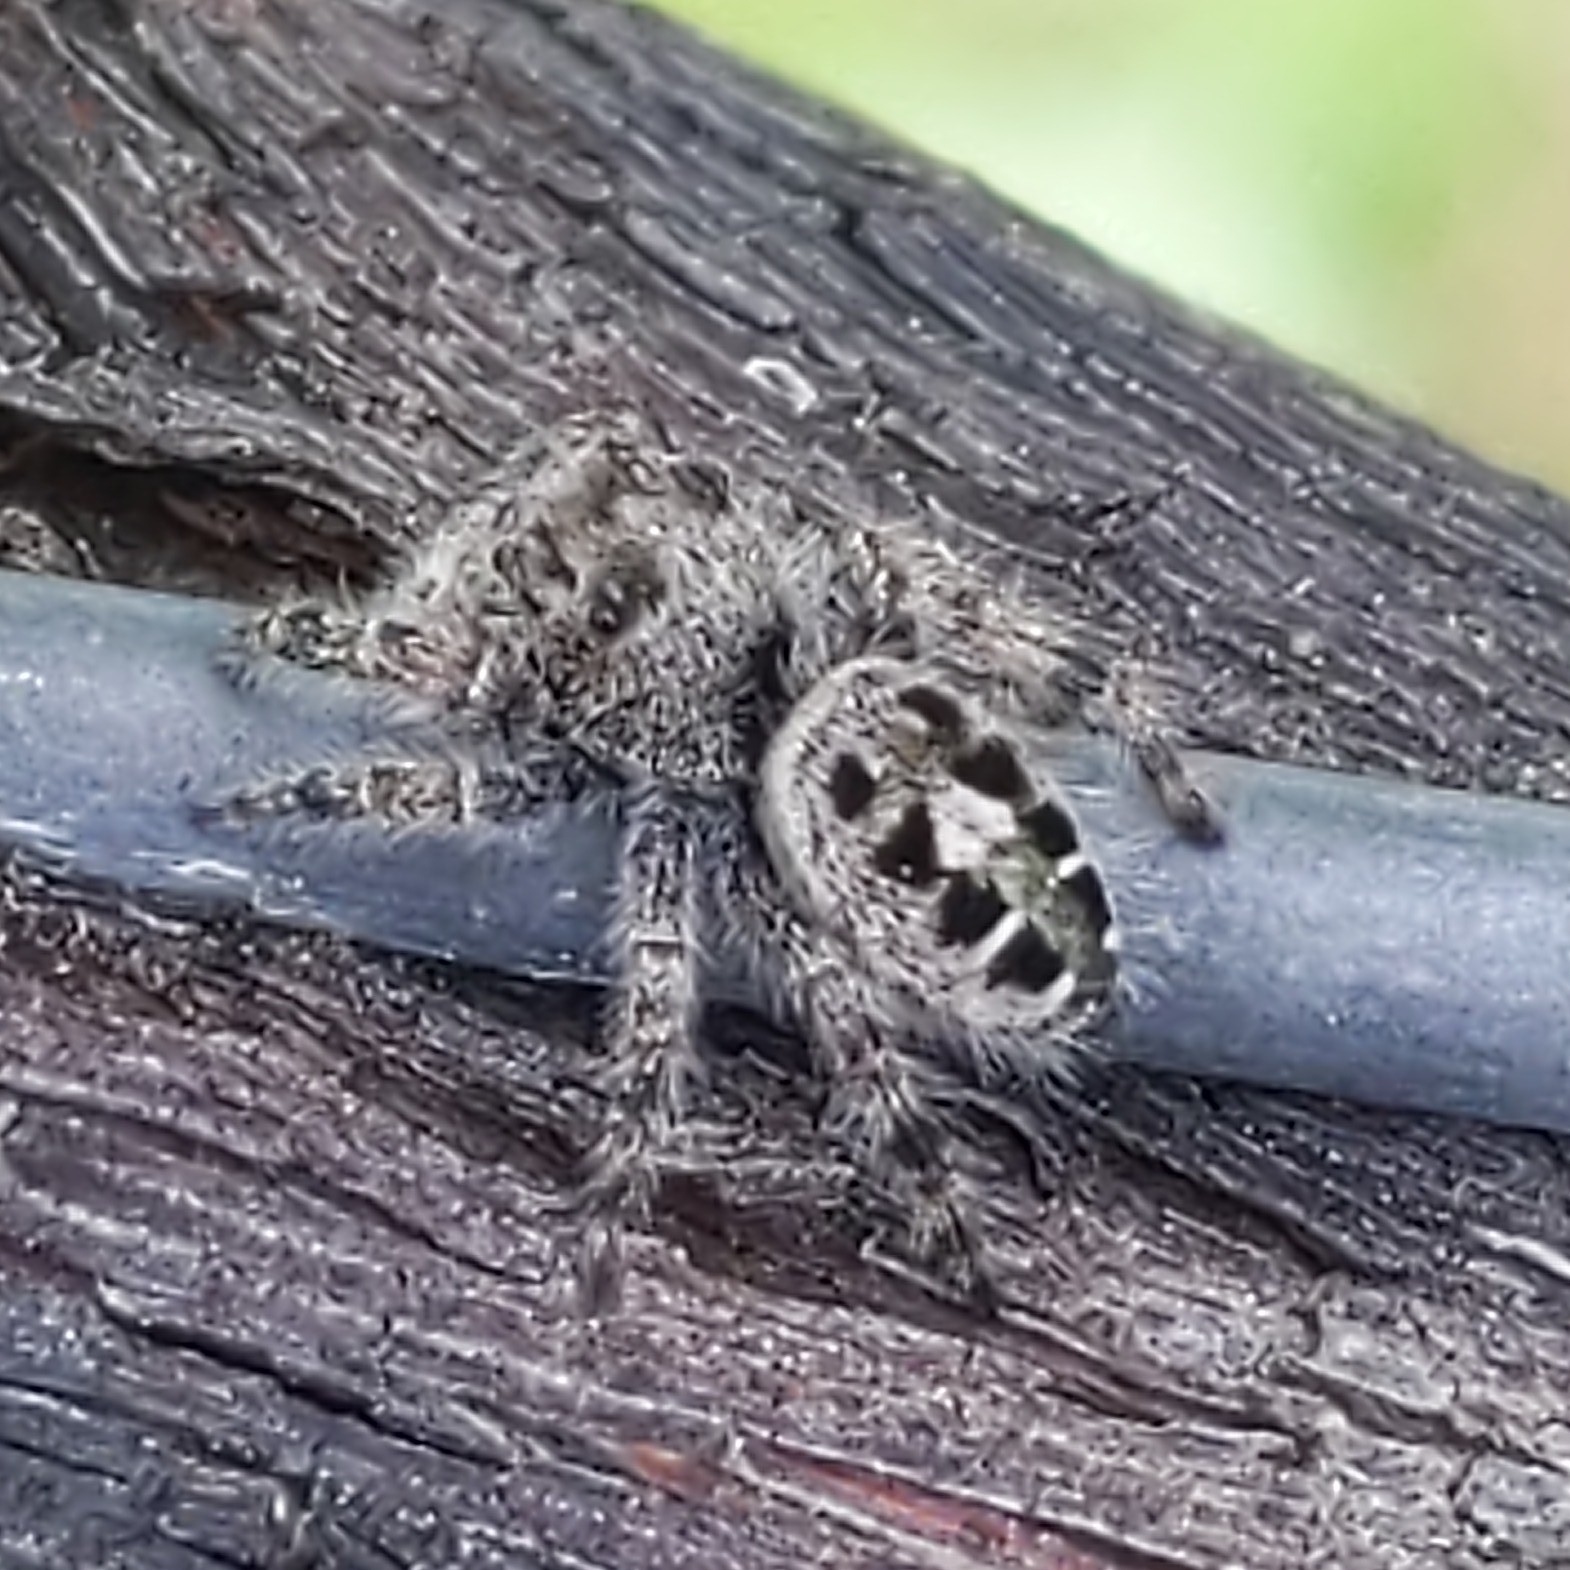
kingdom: Animalia
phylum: Arthropoda
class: Arachnida
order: Araneae
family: Salticidae
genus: Phidippus
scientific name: Phidippus putnami
